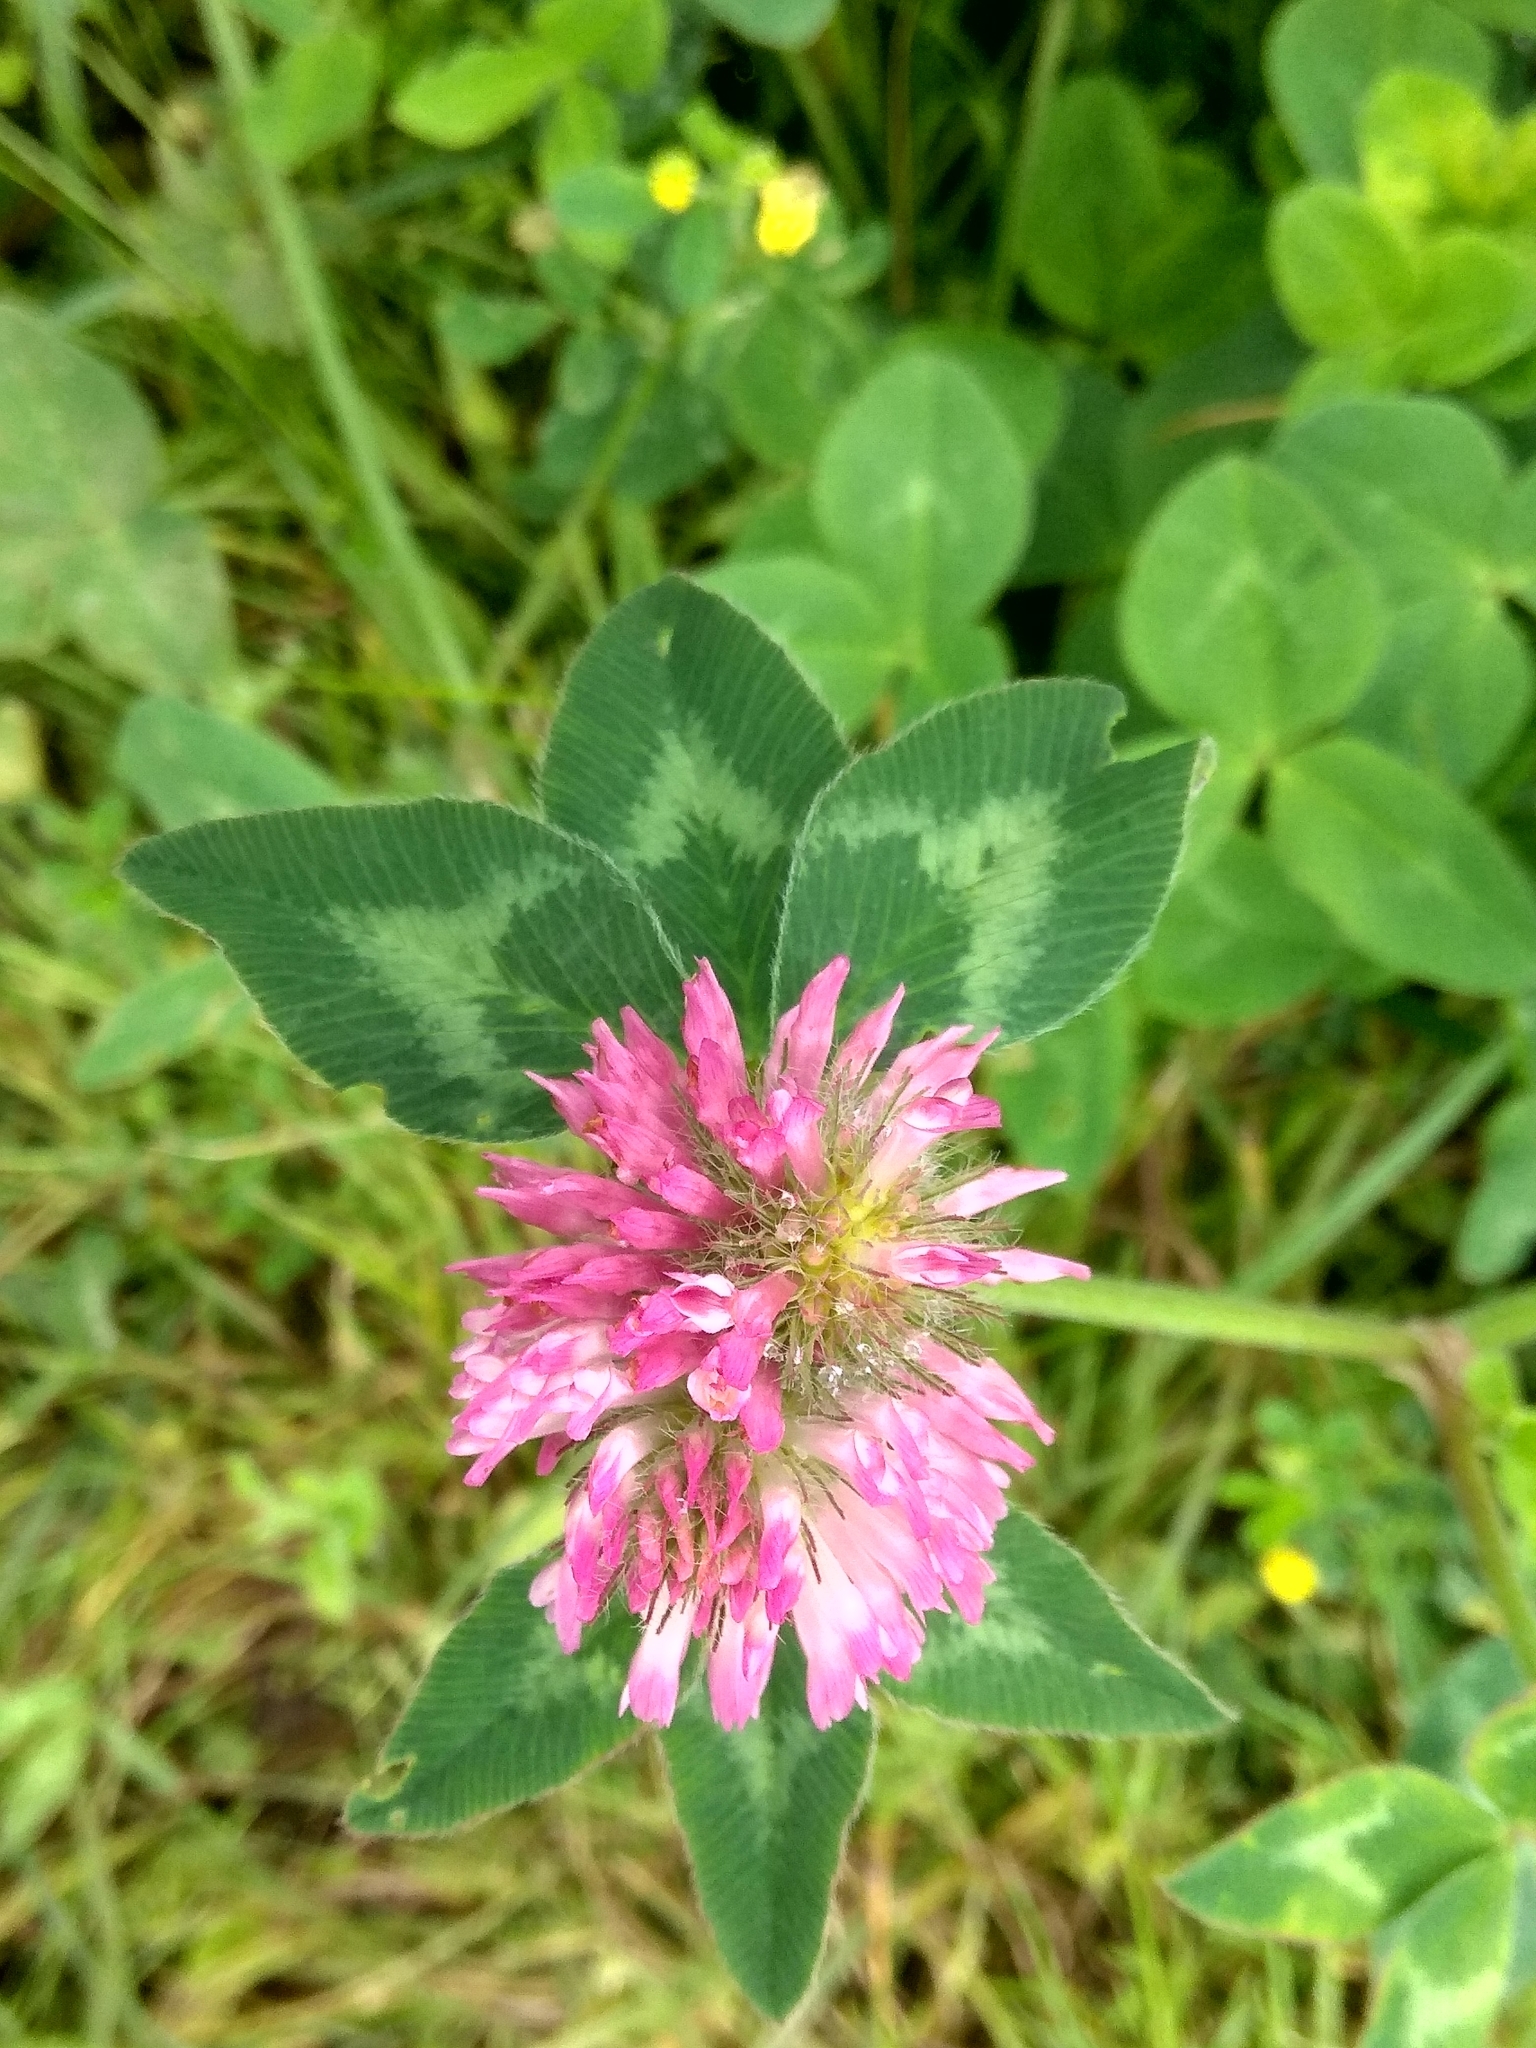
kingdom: Plantae
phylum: Tracheophyta
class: Magnoliopsida
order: Fabales
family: Fabaceae
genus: Trifolium
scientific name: Trifolium pratense
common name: Red clover
